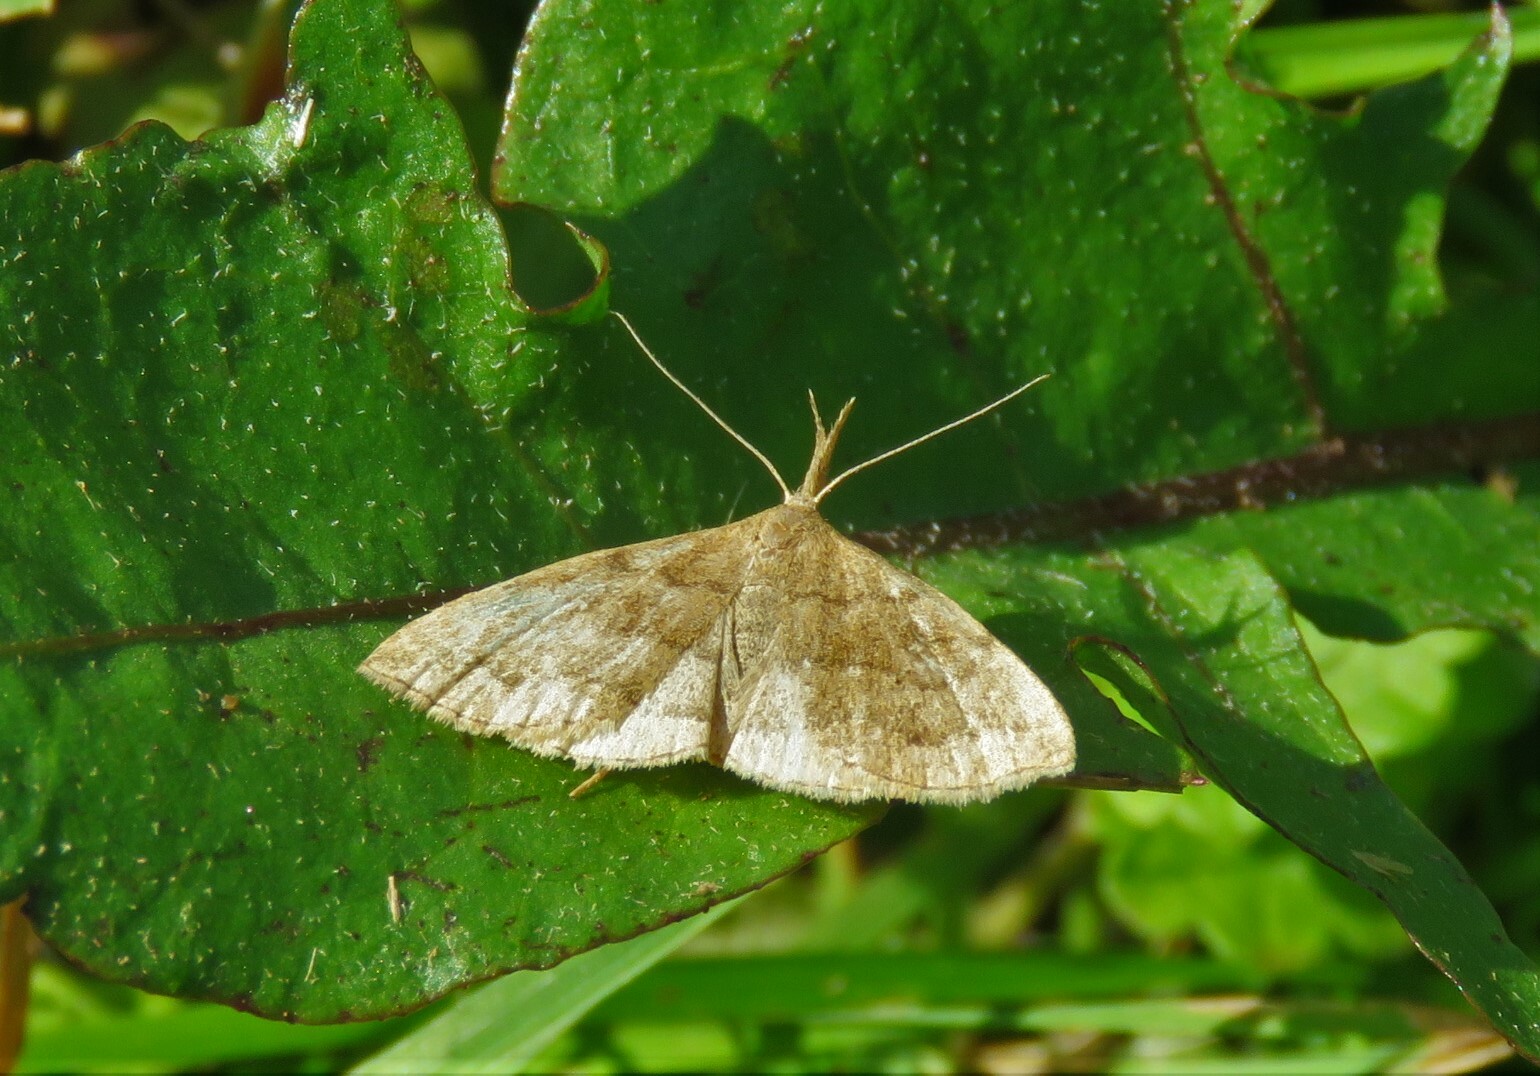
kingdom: Animalia
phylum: Arthropoda
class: Insecta
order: Lepidoptera
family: Erebidae
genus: Phalaenostola
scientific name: Phalaenostola metonalis
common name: Pale phalaenostola moth
